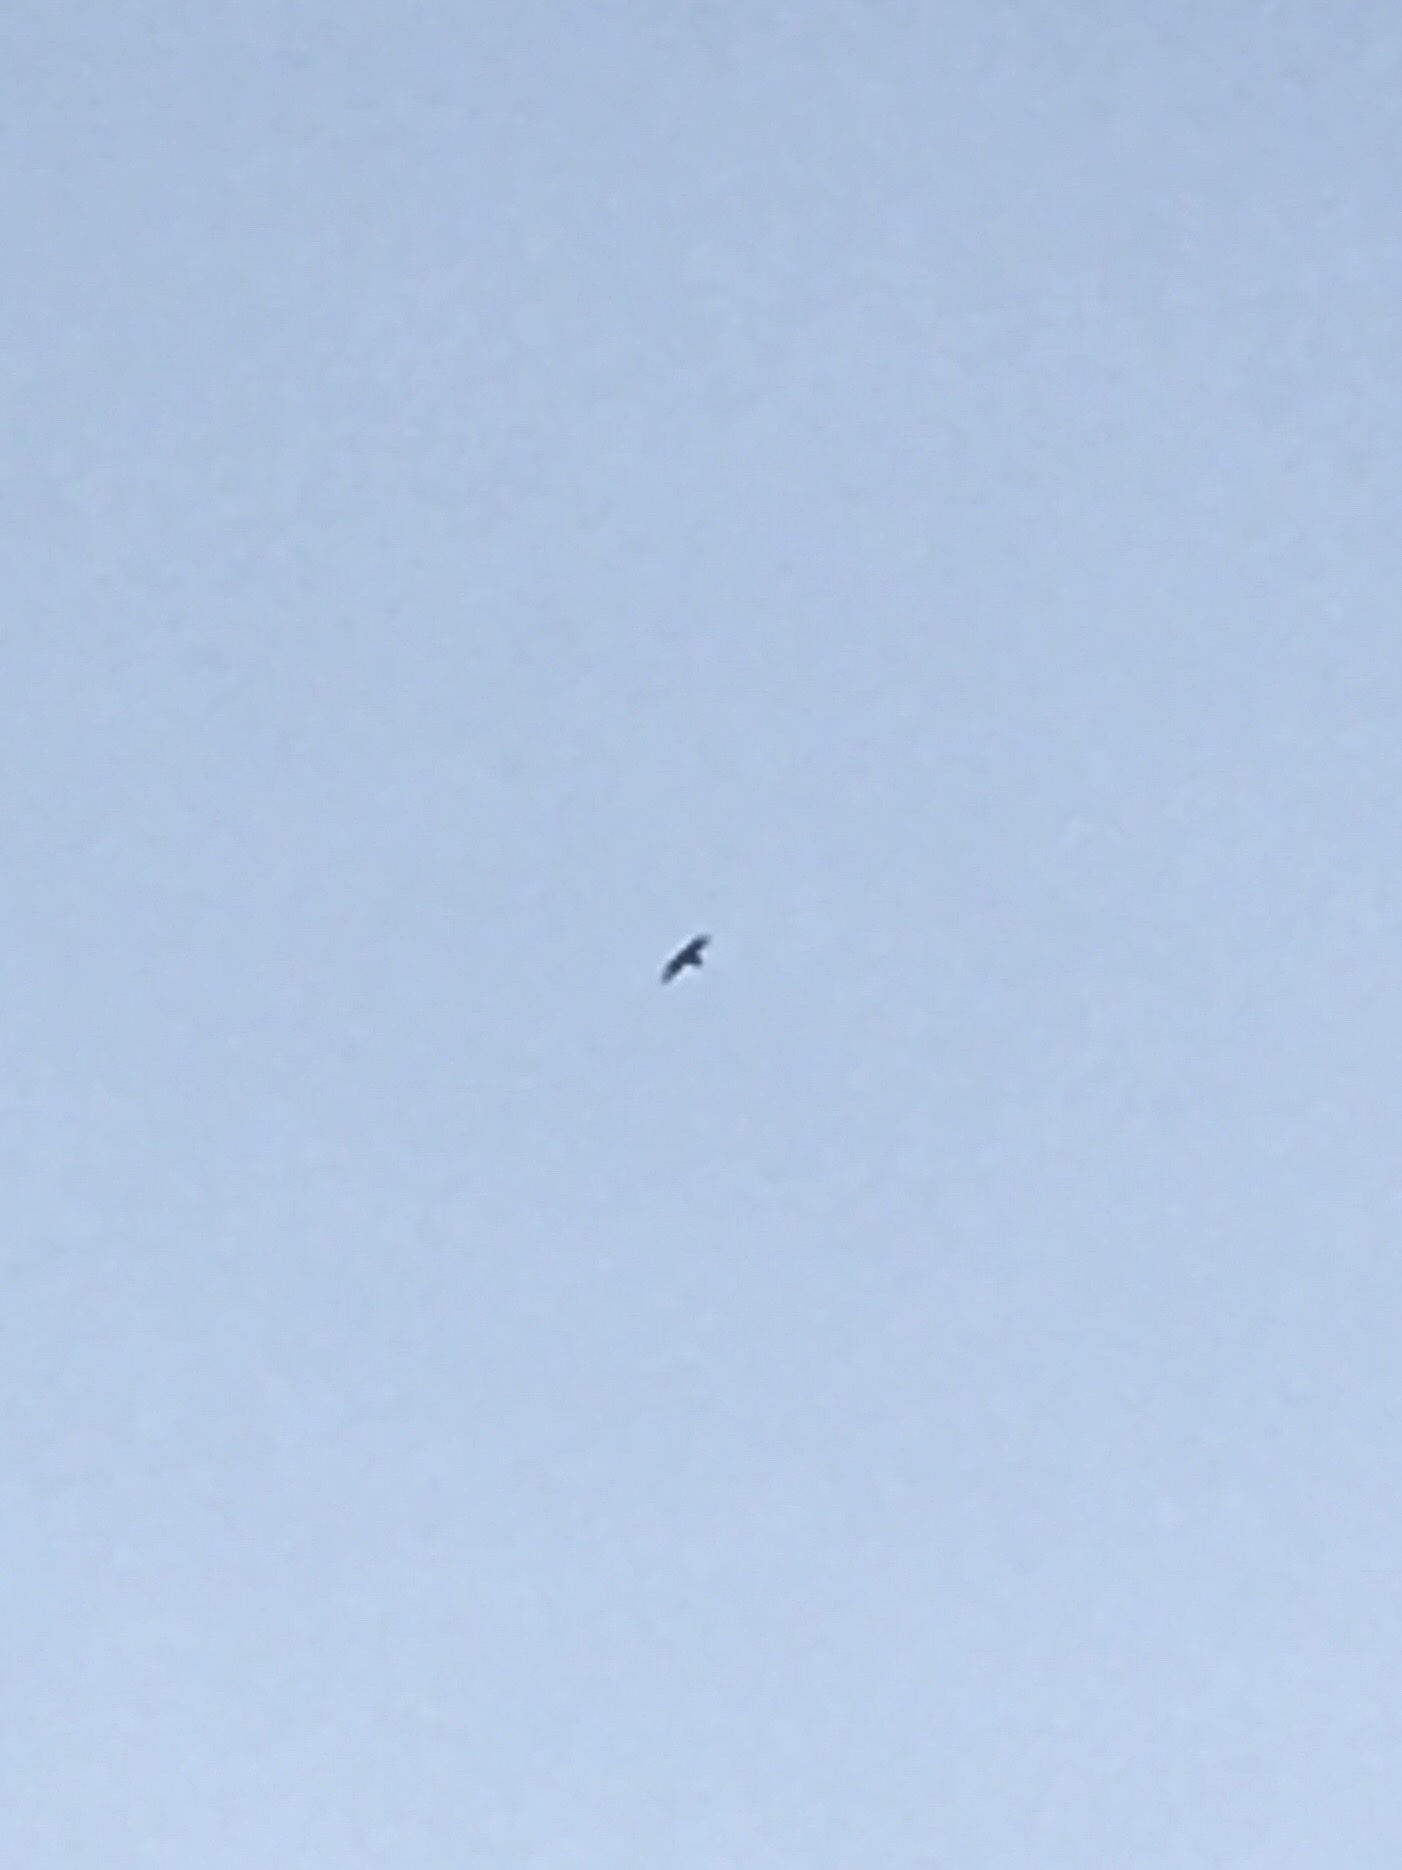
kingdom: Animalia
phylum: Chordata
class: Aves
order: Falconiformes
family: Falconidae
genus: Falco
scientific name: Falco peregrinus
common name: Peregrine falcon
